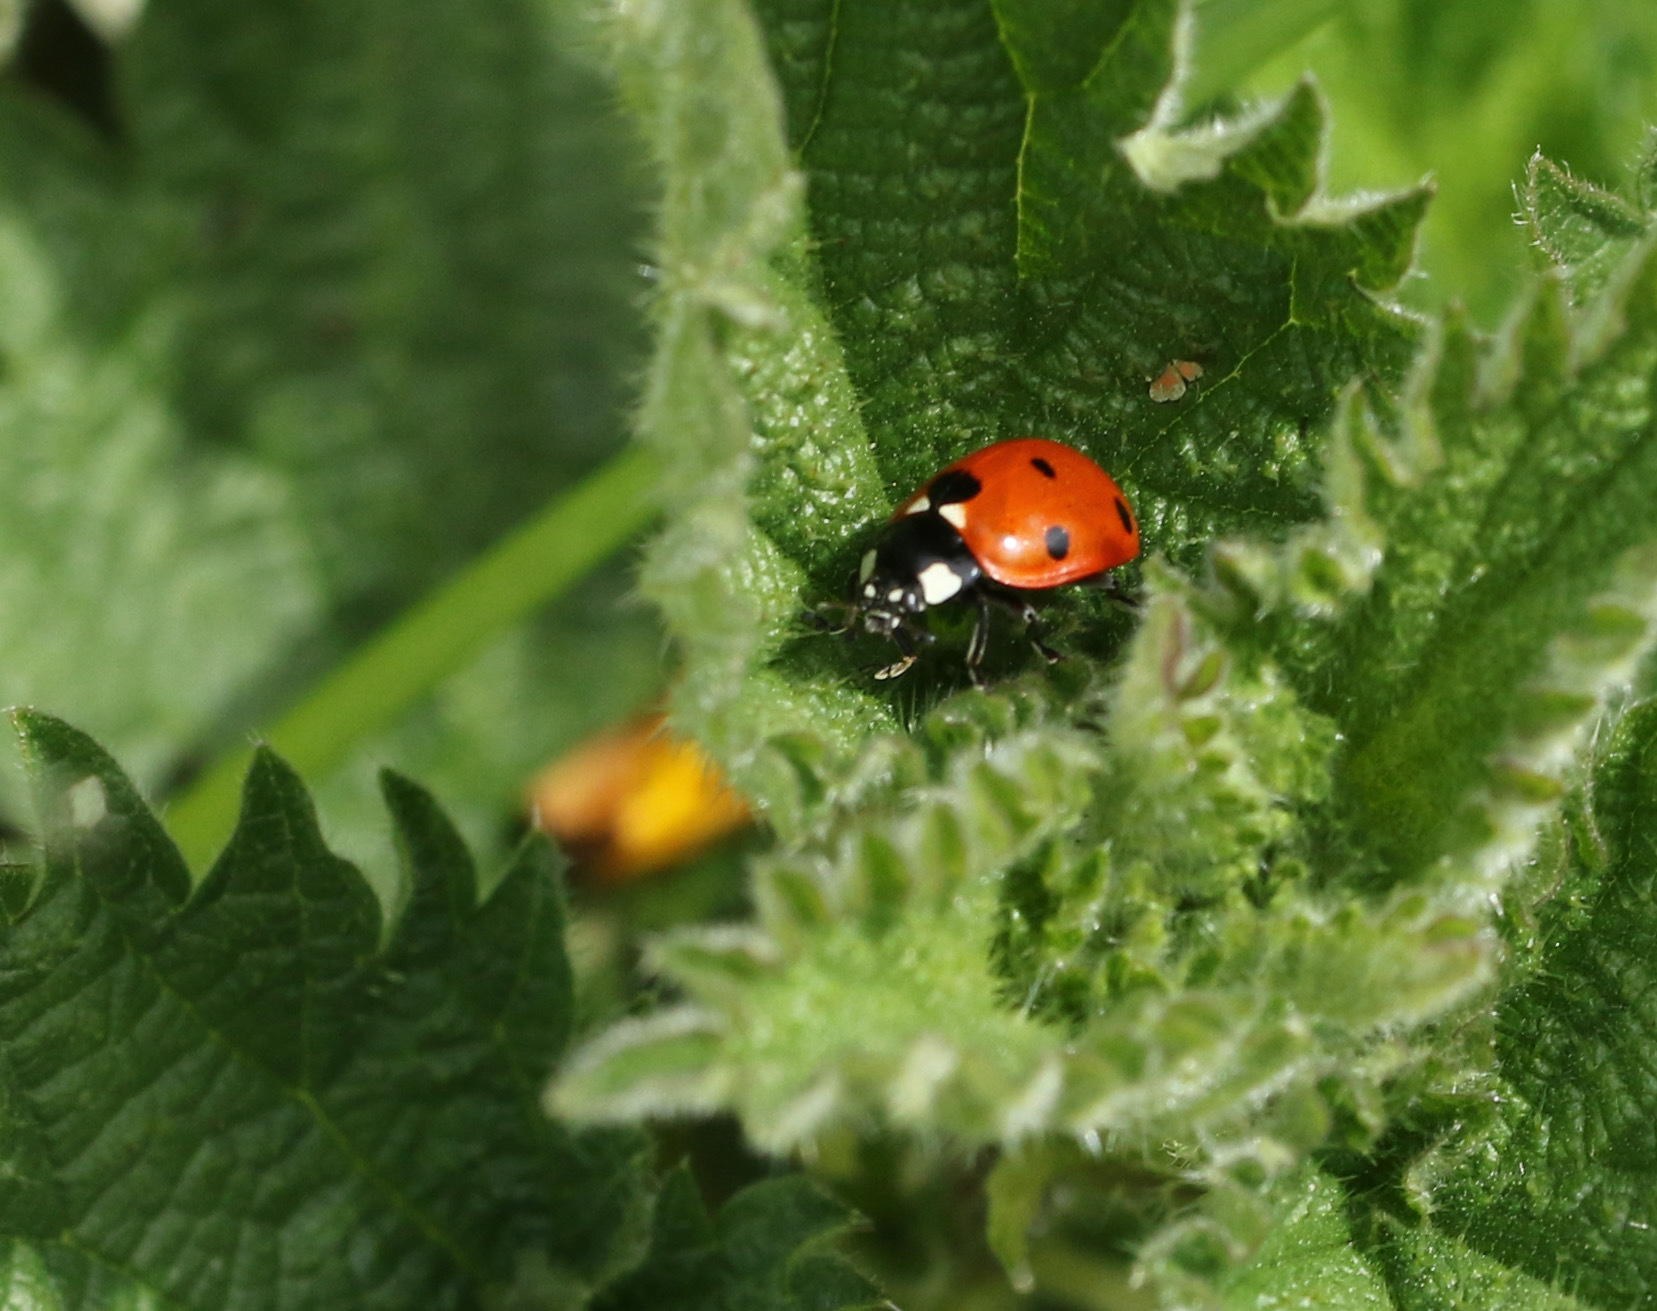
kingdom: Animalia
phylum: Arthropoda
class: Insecta
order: Coleoptera
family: Coccinellidae
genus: Coccinella
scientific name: Coccinella septempunctata
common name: Sevenspotted lady beetle
